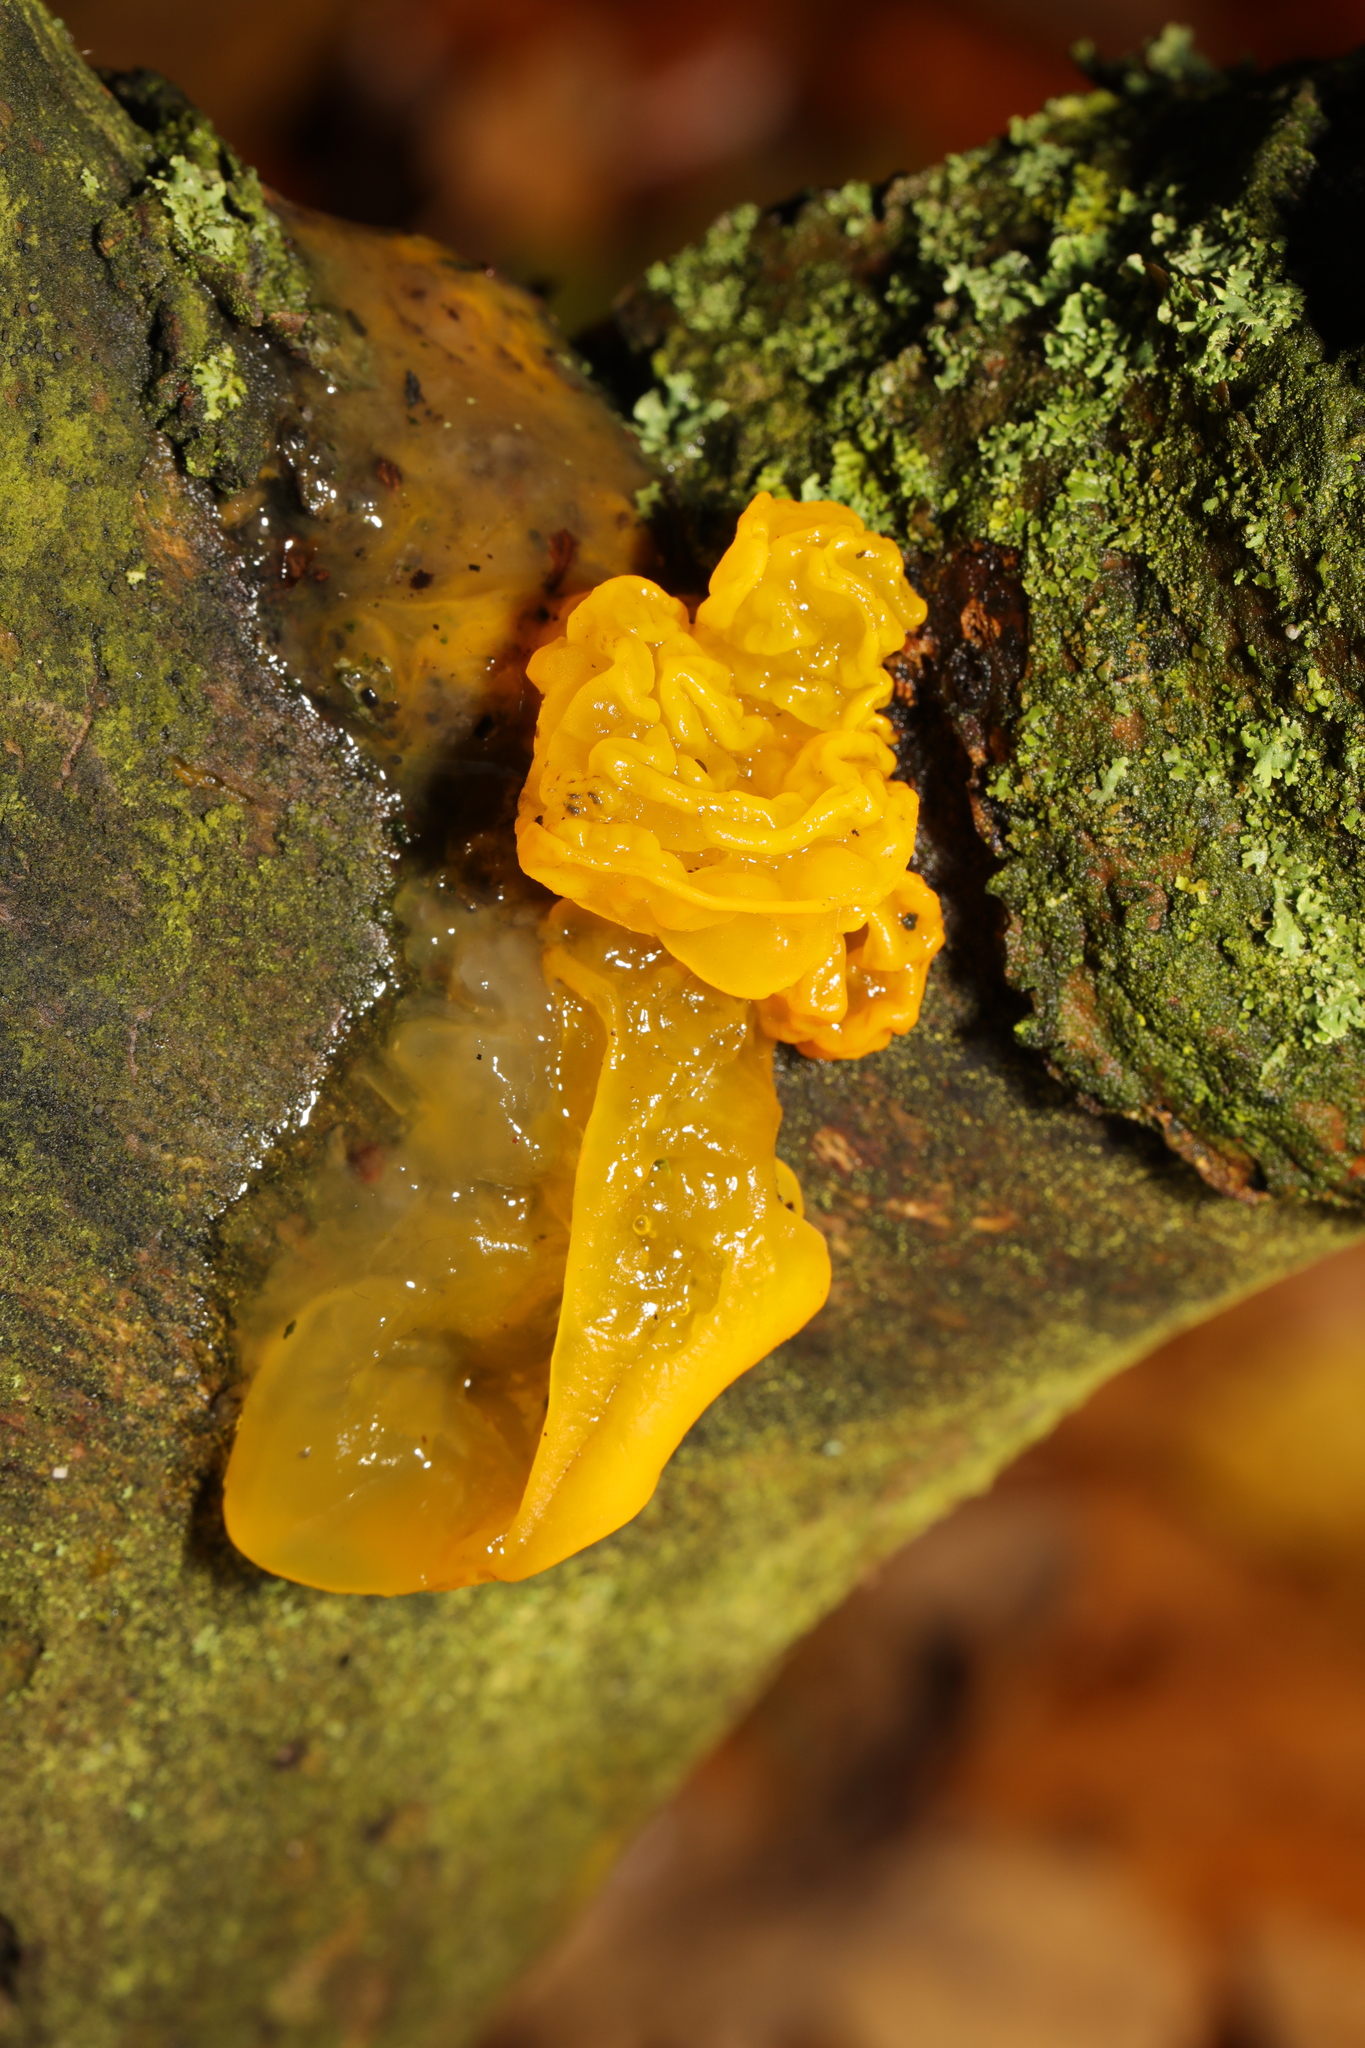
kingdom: Fungi
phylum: Basidiomycota
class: Tremellomycetes
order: Tremellales
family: Tremellaceae
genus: Tremella
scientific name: Tremella mesenterica
